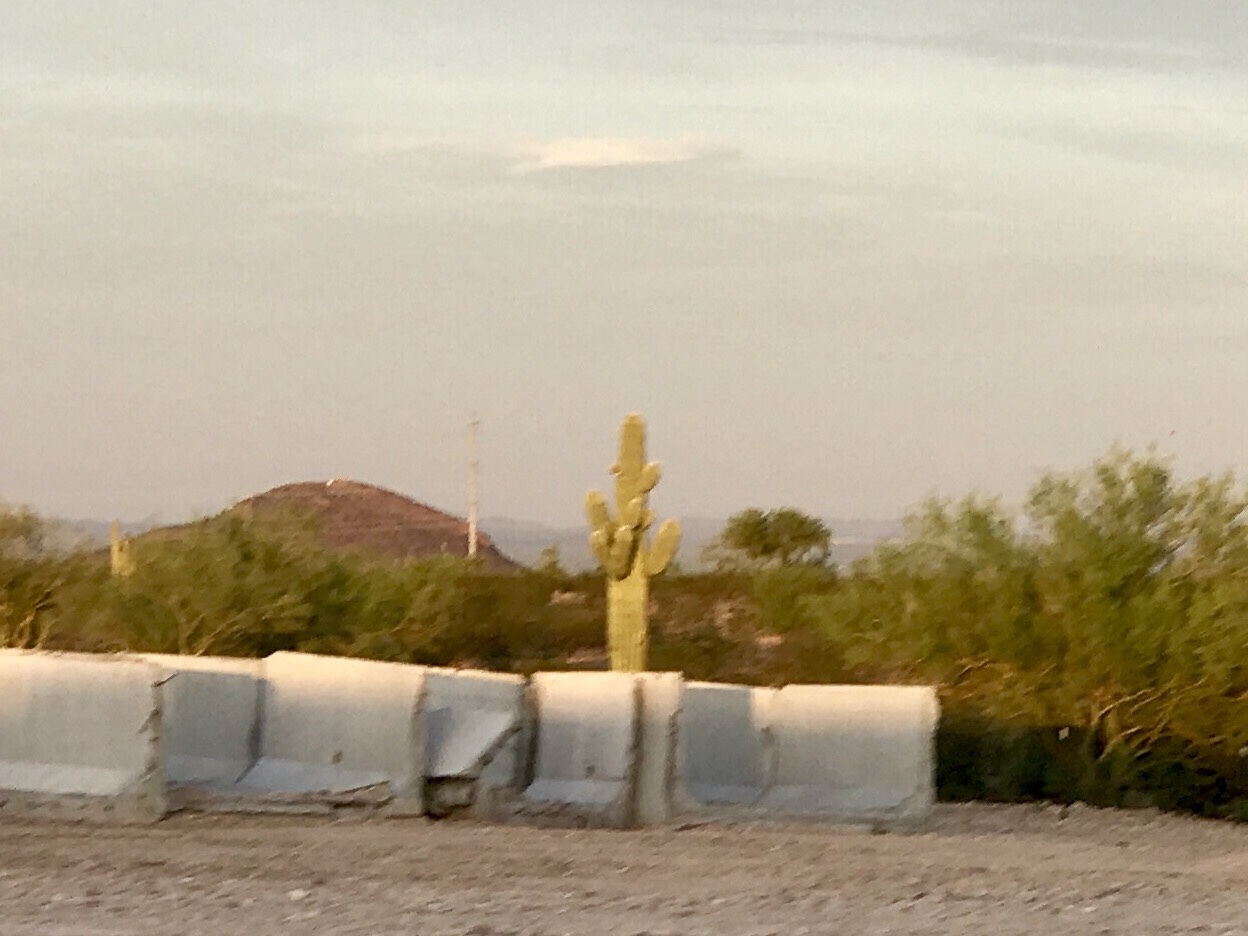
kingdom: Plantae
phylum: Tracheophyta
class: Magnoliopsida
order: Caryophyllales
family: Cactaceae
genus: Carnegiea
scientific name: Carnegiea gigantea
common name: Saguaro
